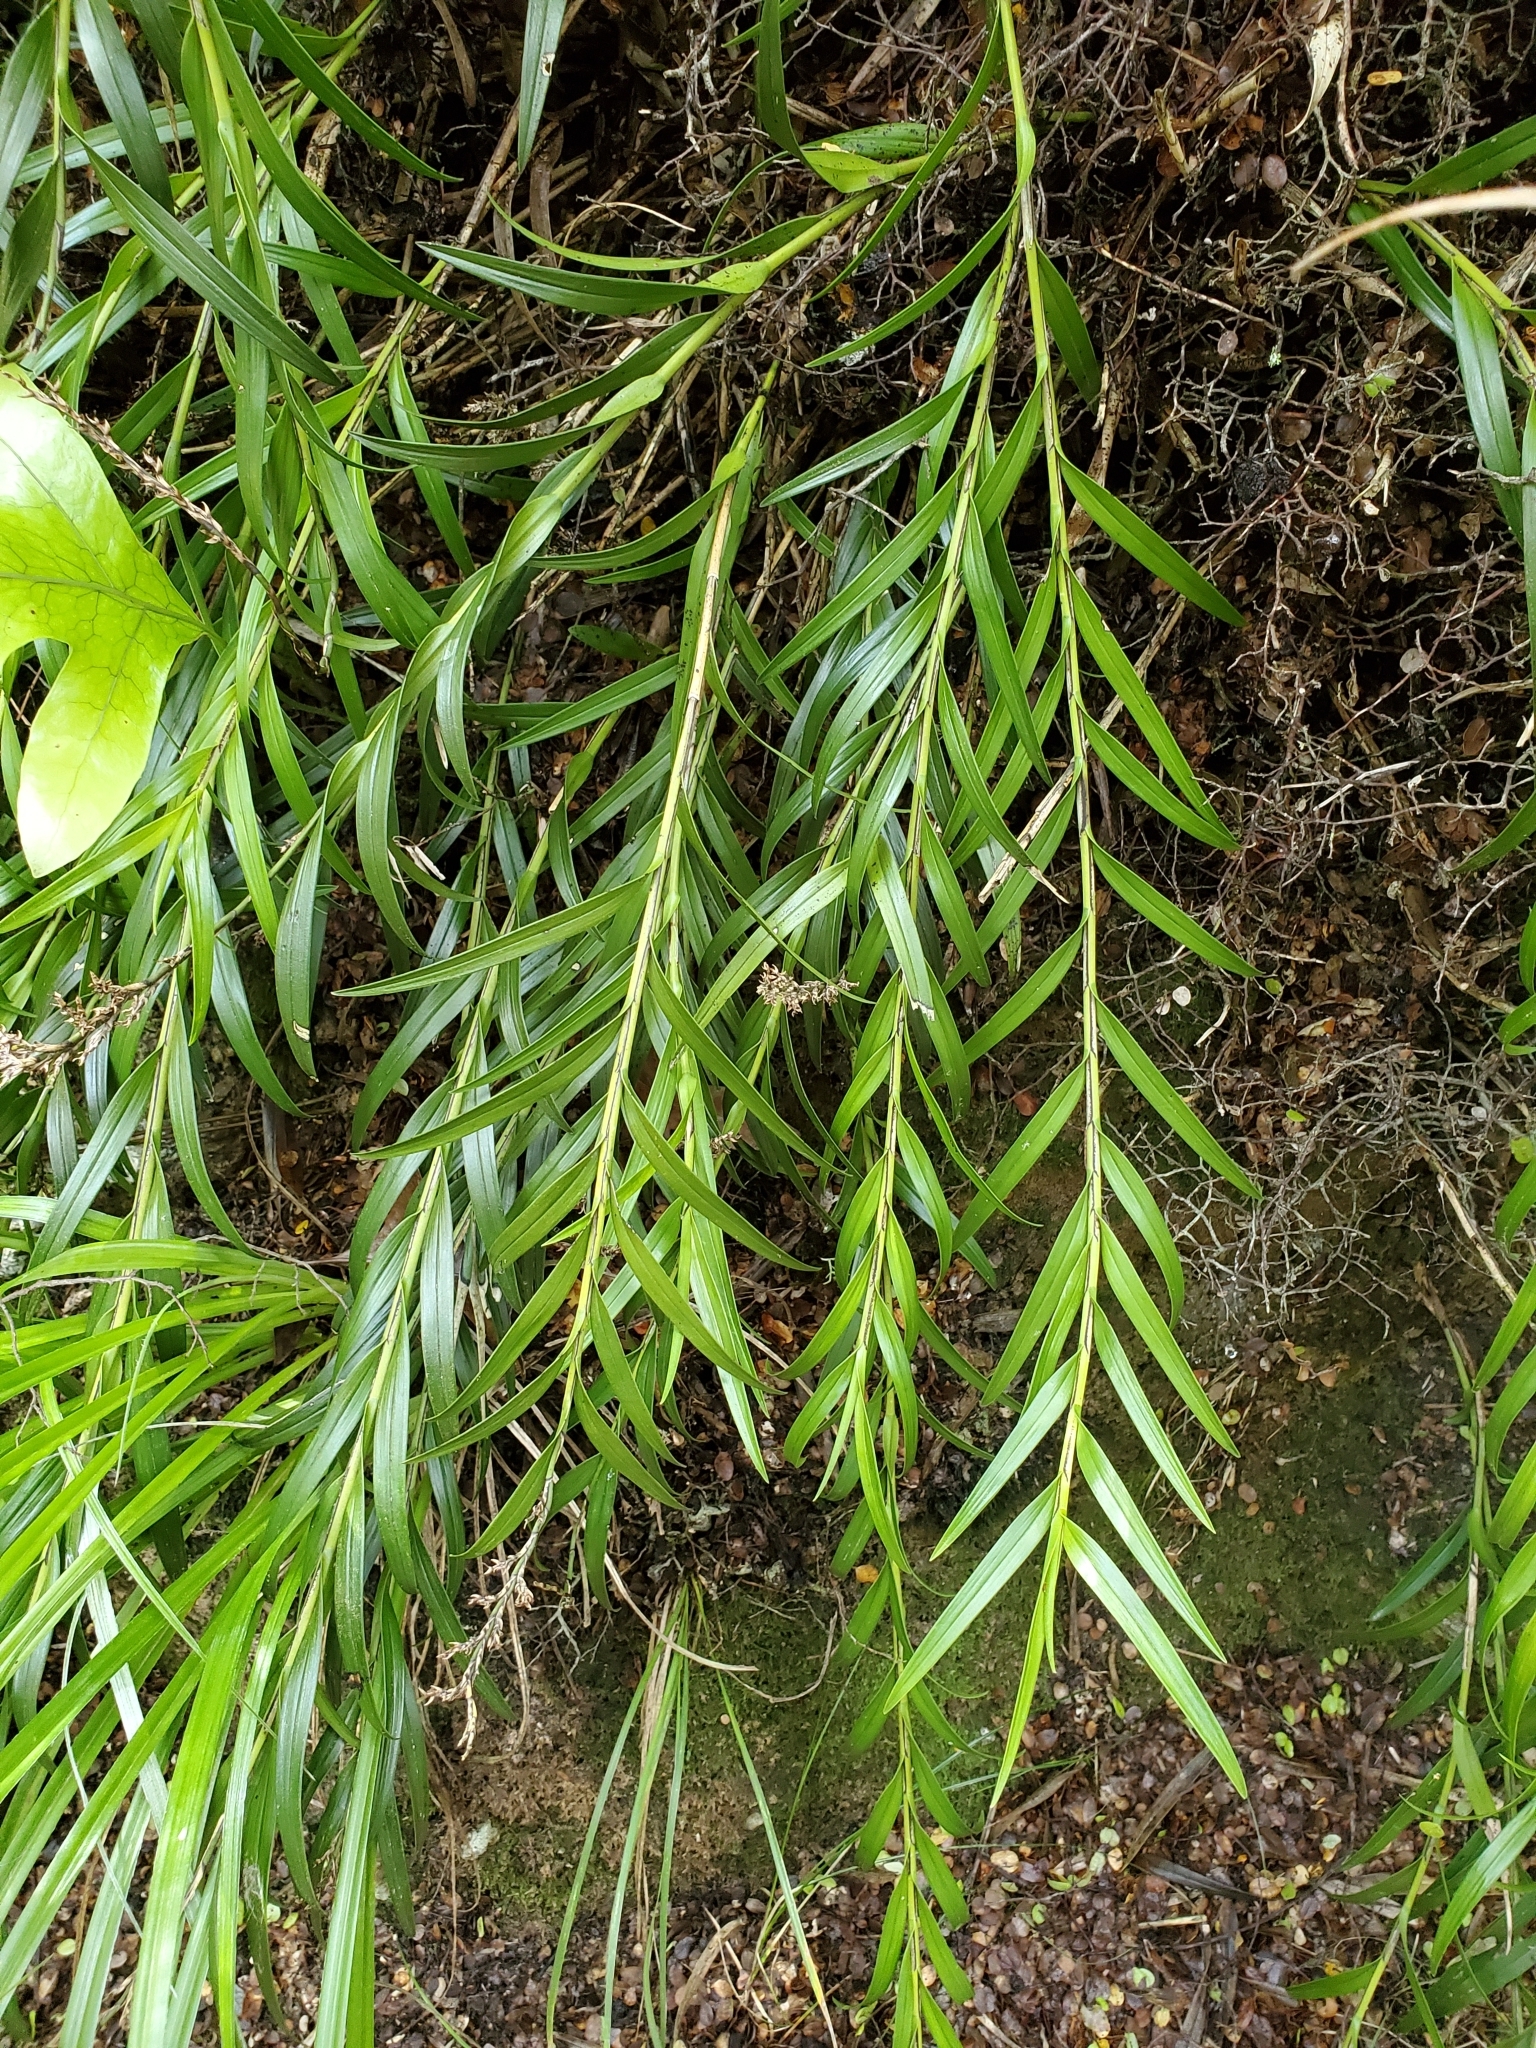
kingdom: Plantae
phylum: Tracheophyta
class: Liliopsida
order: Asparagales
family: Orchidaceae
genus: Earina
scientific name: Earina autumnalis
